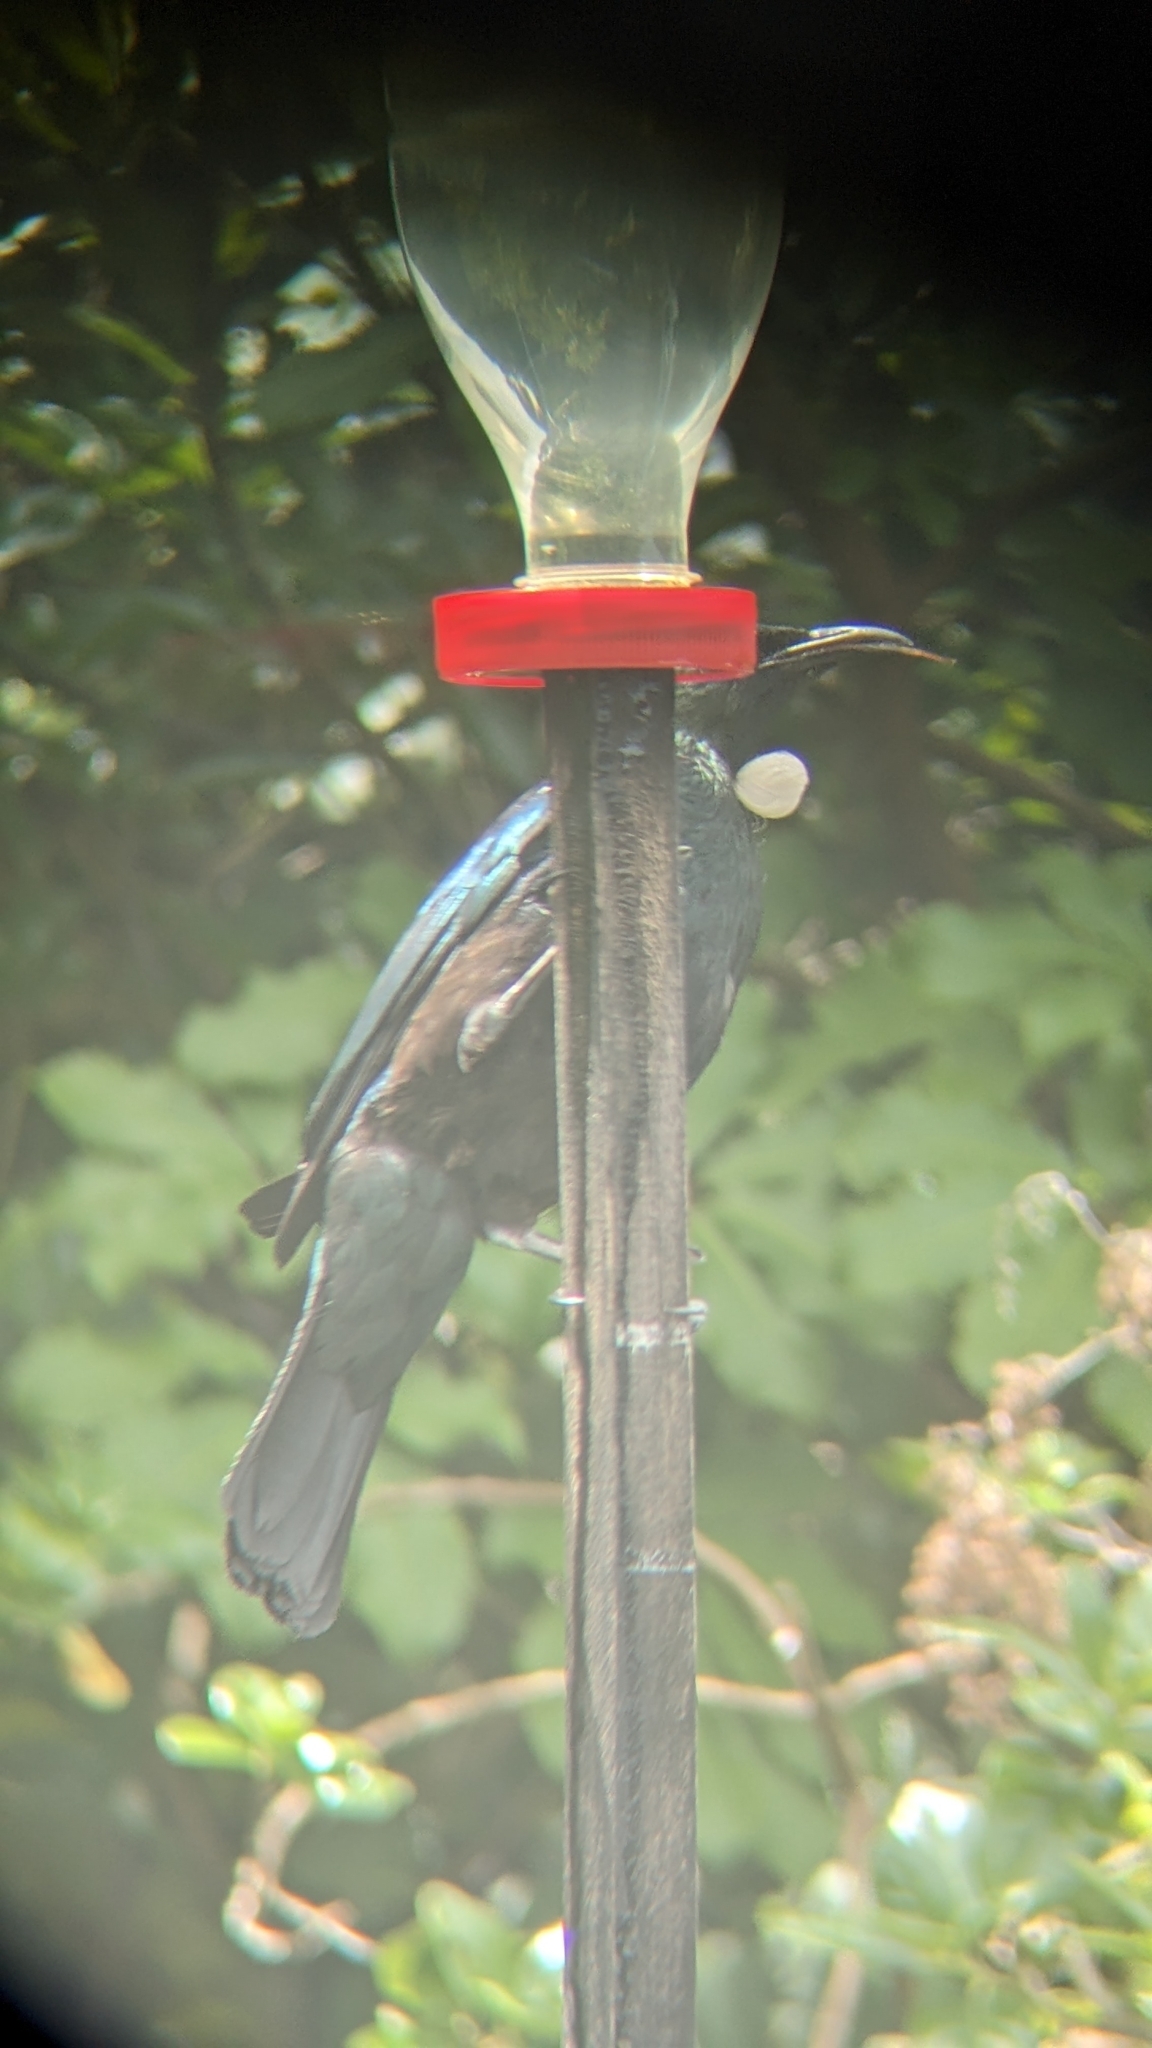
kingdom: Animalia
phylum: Chordata
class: Aves
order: Passeriformes
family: Meliphagidae
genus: Prosthemadera
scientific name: Prosthemadera novaeseelandiae
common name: Tui
